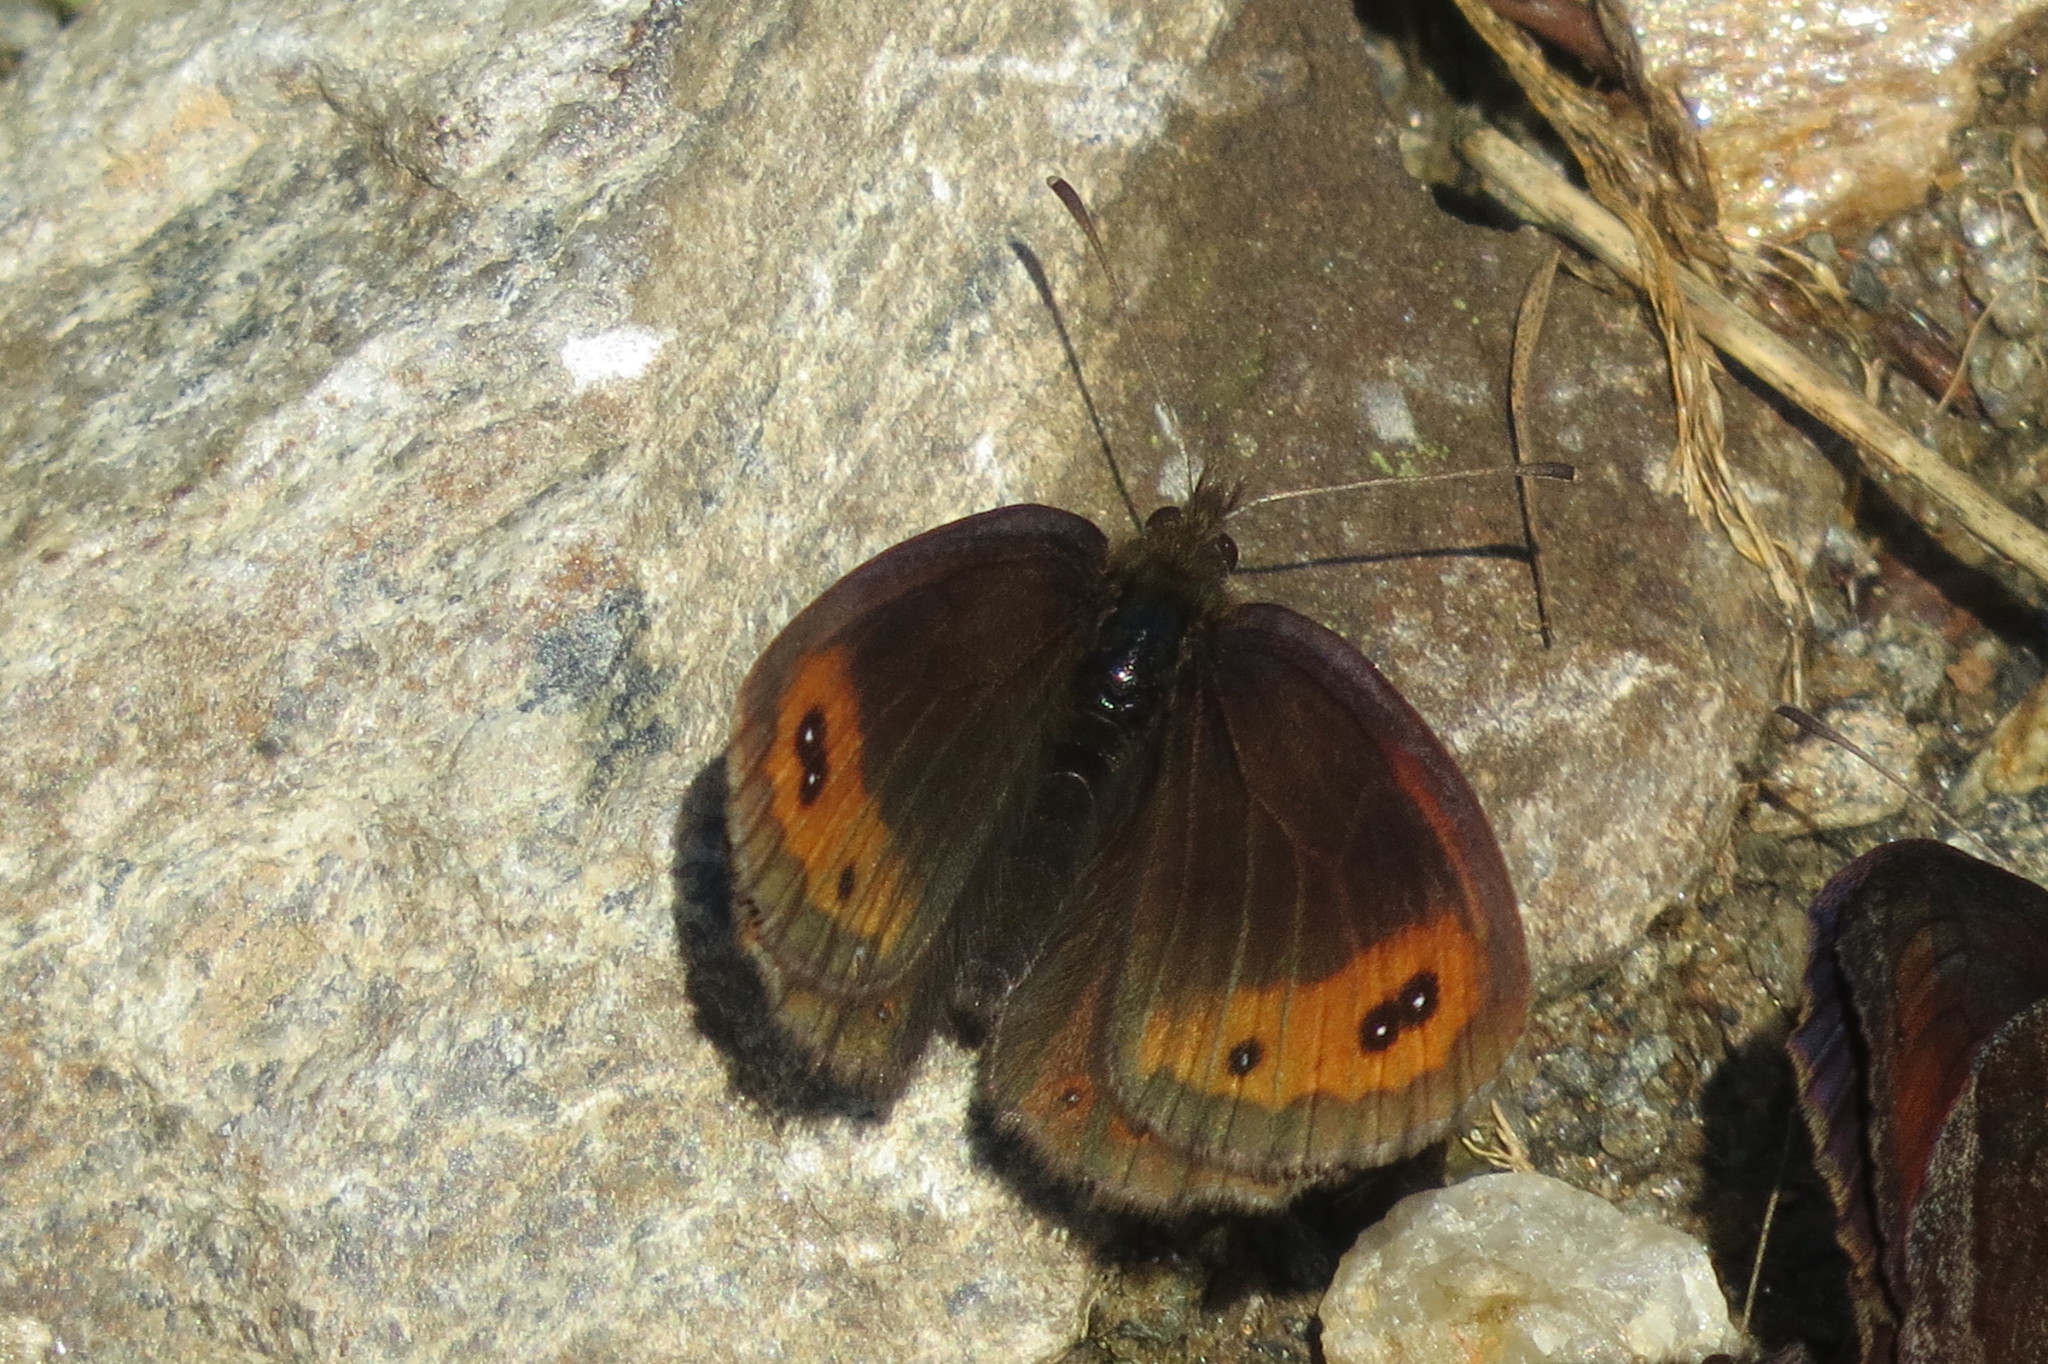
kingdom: Animalia
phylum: Arthropoda
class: Insecta
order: Lepidoptera
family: Nymphalidae
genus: Erebia
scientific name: Erebia montanus
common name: Marbled ringlet
